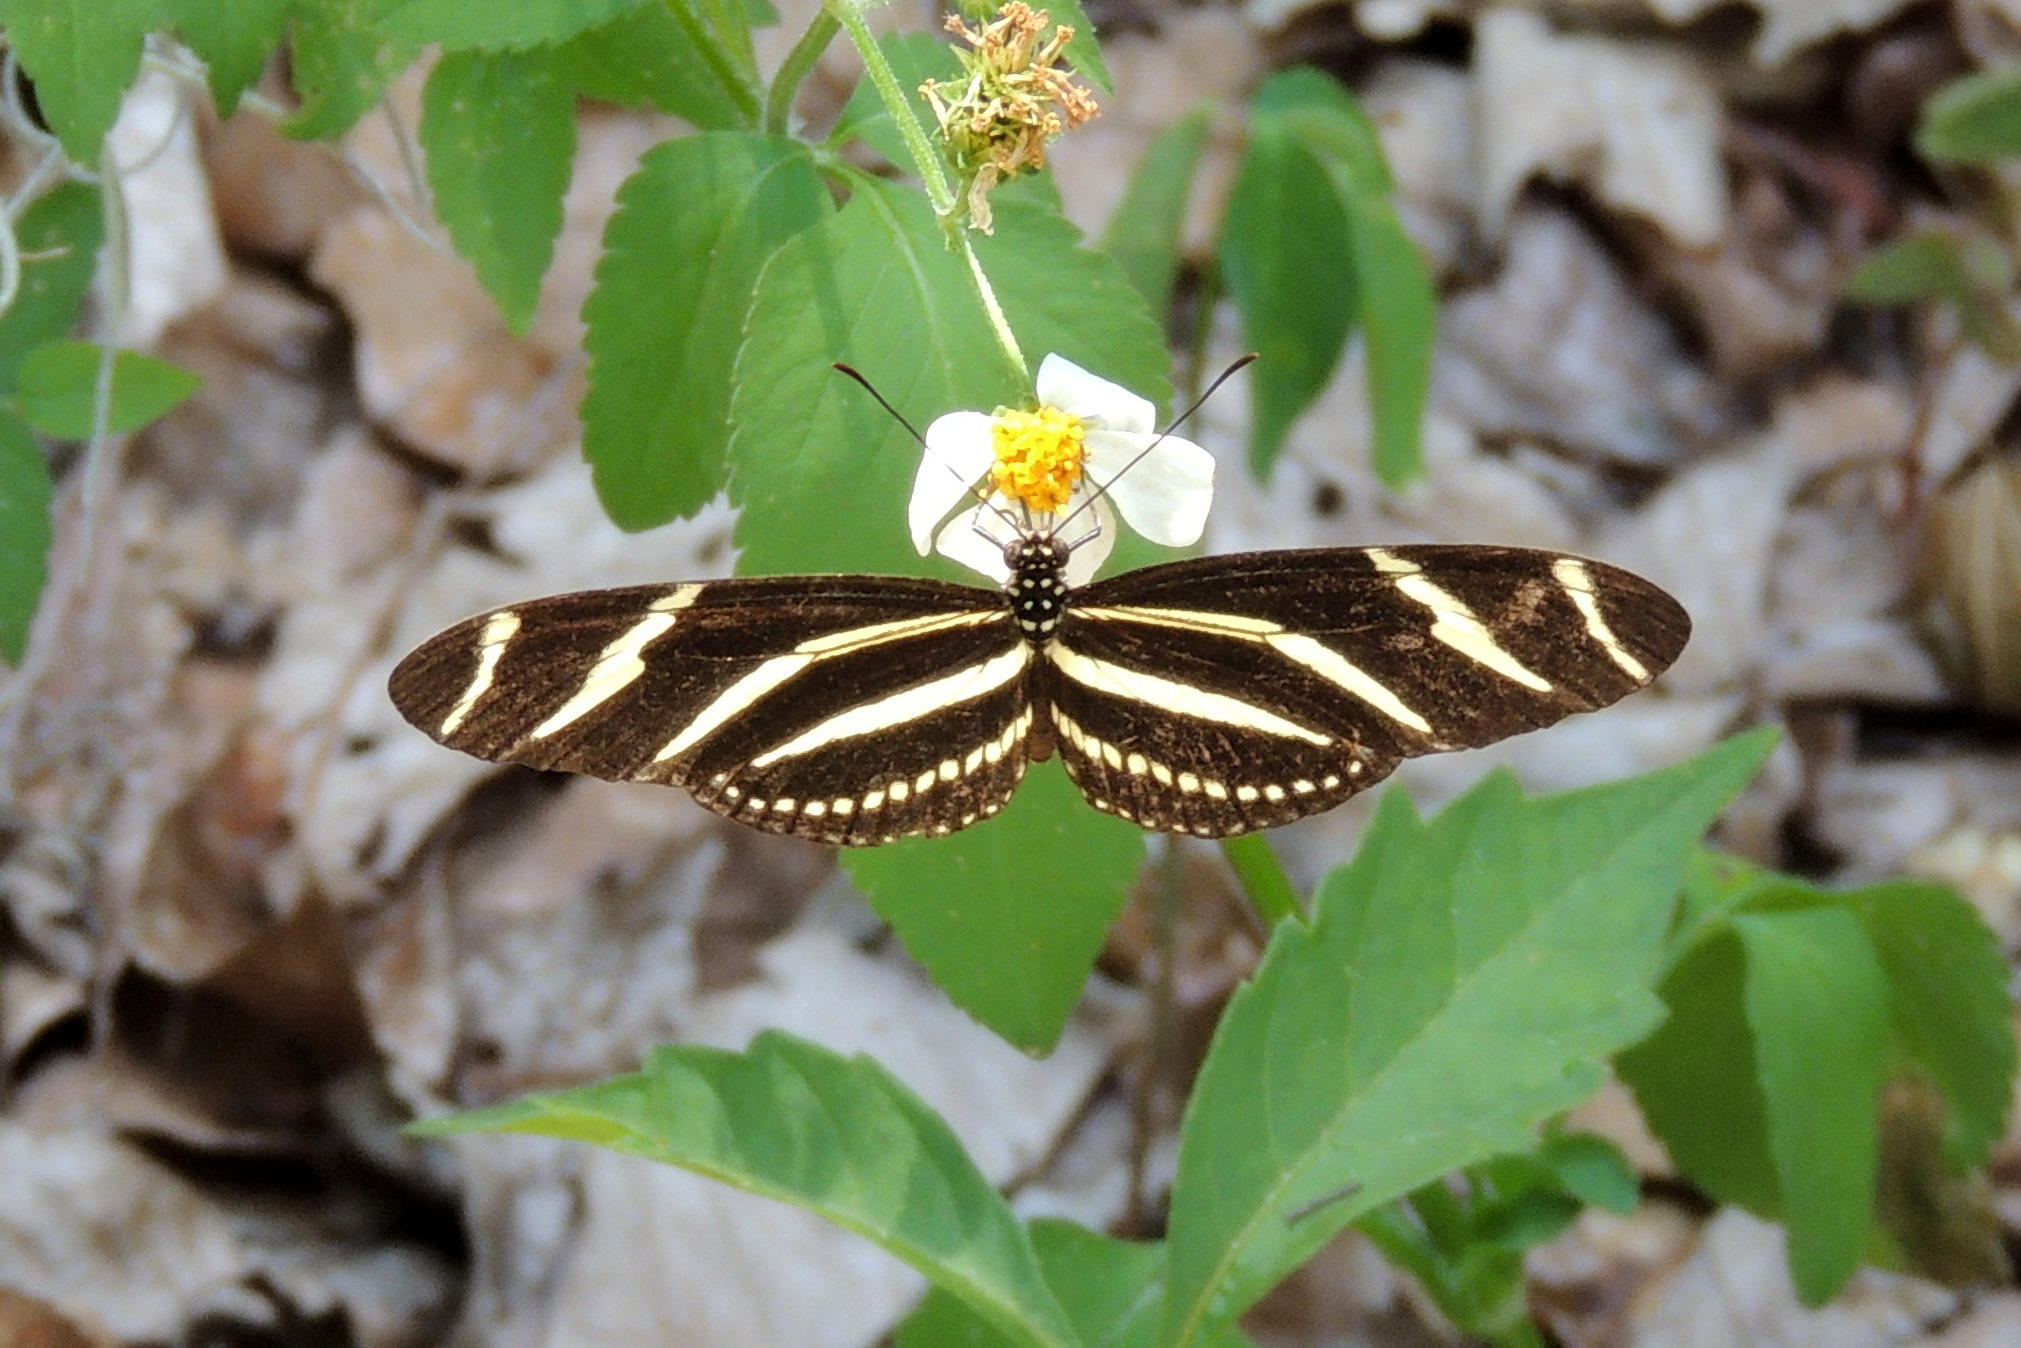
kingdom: Animalia
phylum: Arthropoda
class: Insecta
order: Lepidoptera
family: Nymphalidae
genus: Heliconius
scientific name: Heliconius charithonia
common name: Zebra long wing
